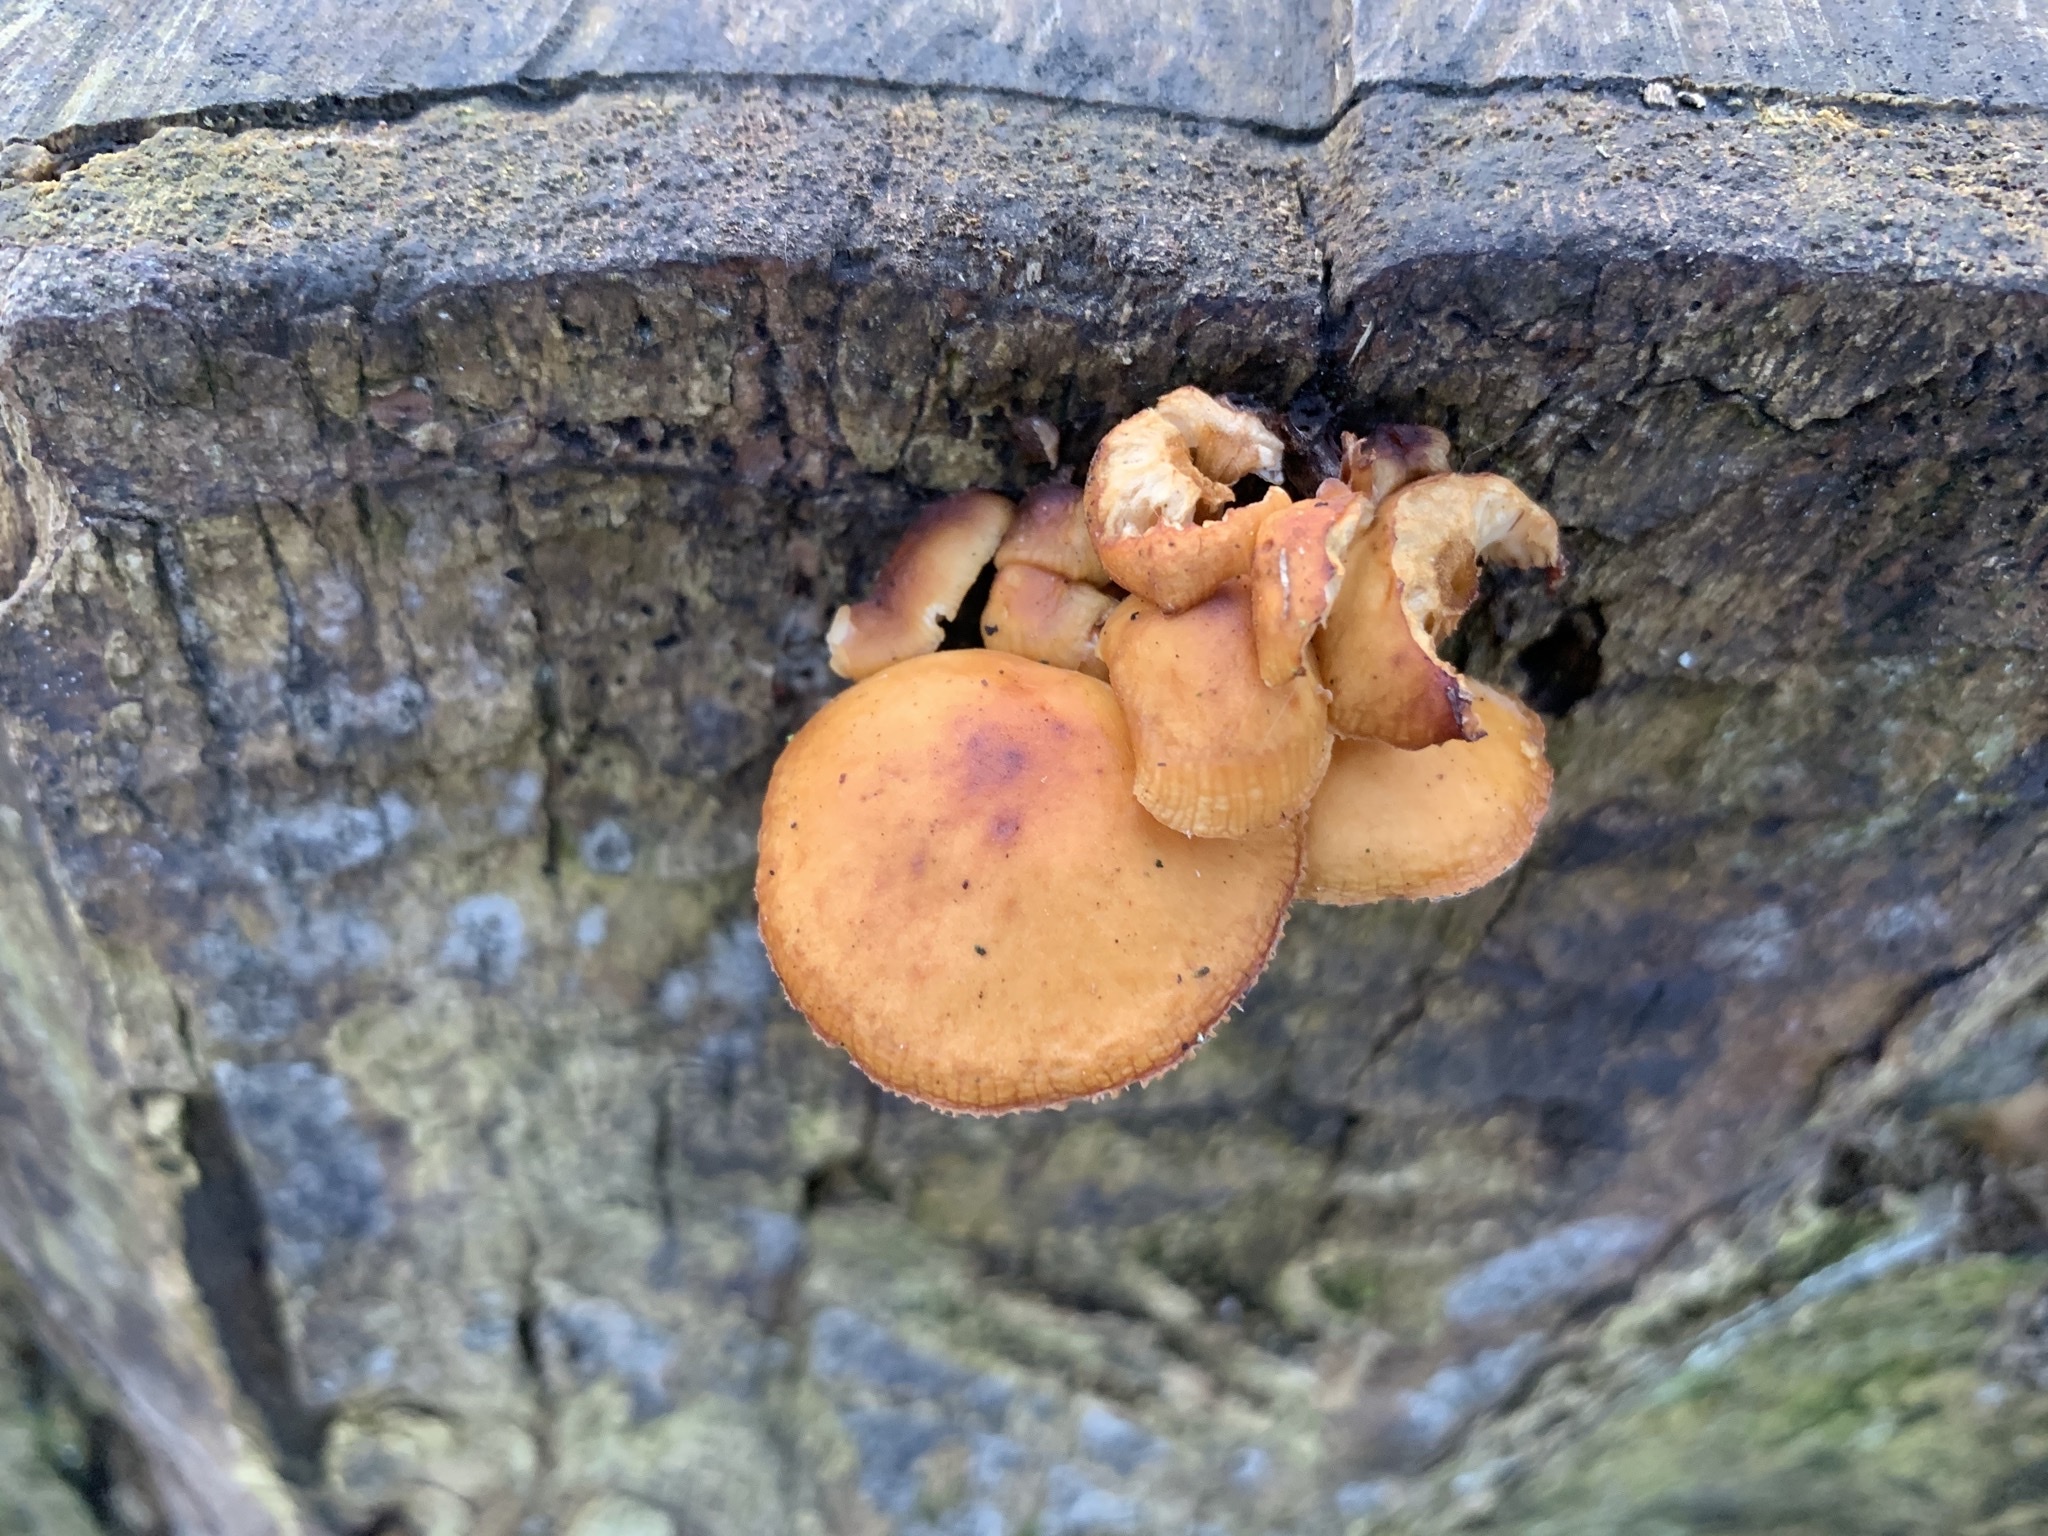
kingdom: Fungi
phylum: Basidiomycota
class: Agaricomycetes
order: Agaricales
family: Physalacriaceae
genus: Flammulina
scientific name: Flammulina
